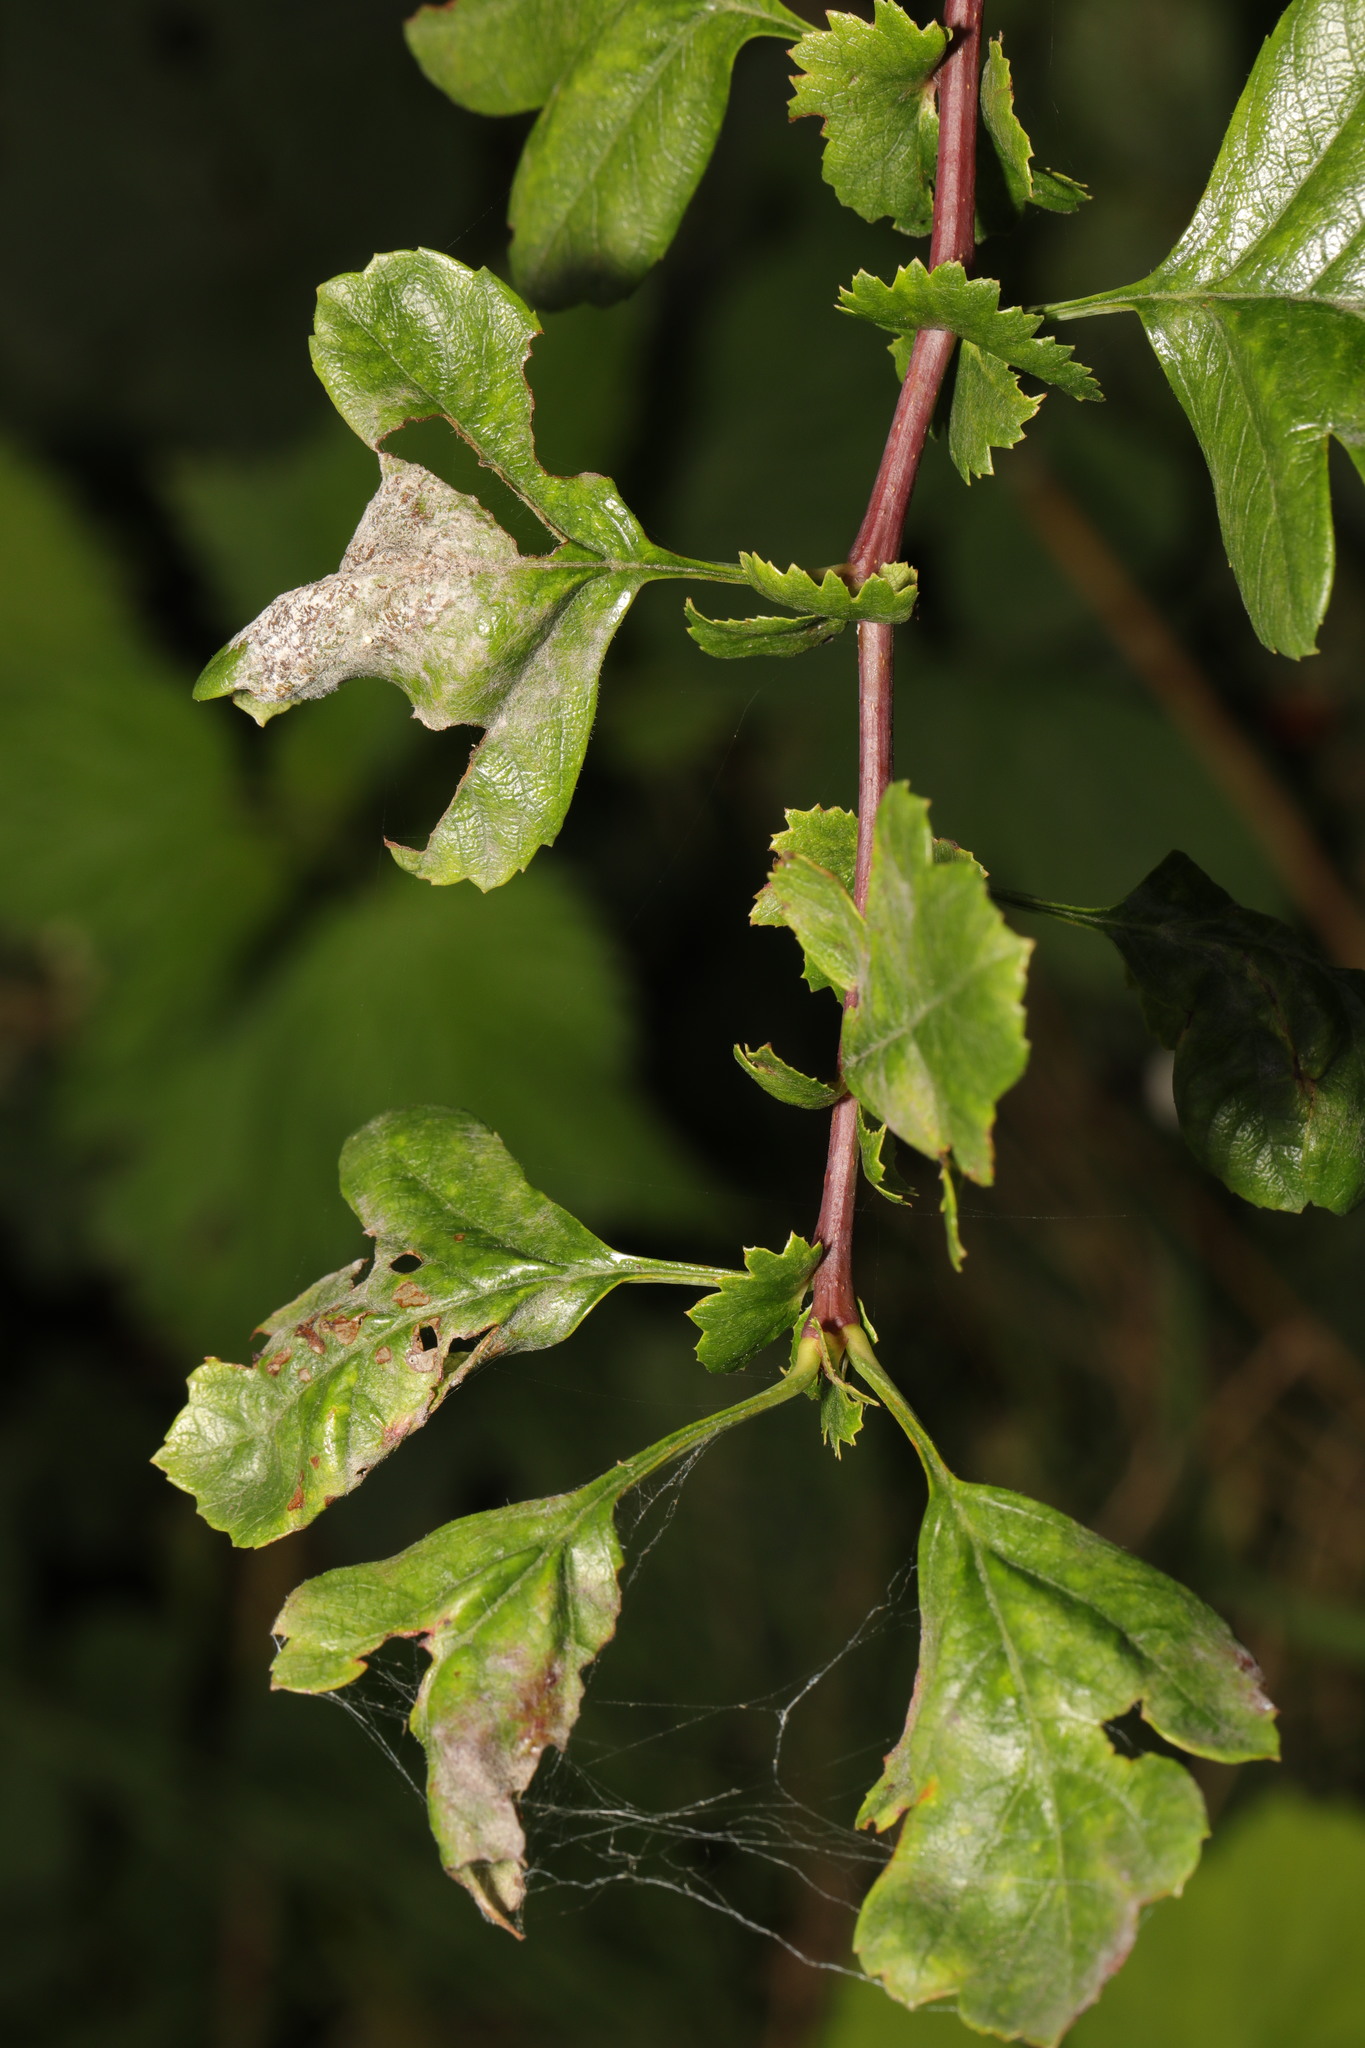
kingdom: Fungi
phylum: Ascomycota
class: Leotiomycetes
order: Helotiales
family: Erysiphaceae
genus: Podosphaera
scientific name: Podosphaera clandestina
